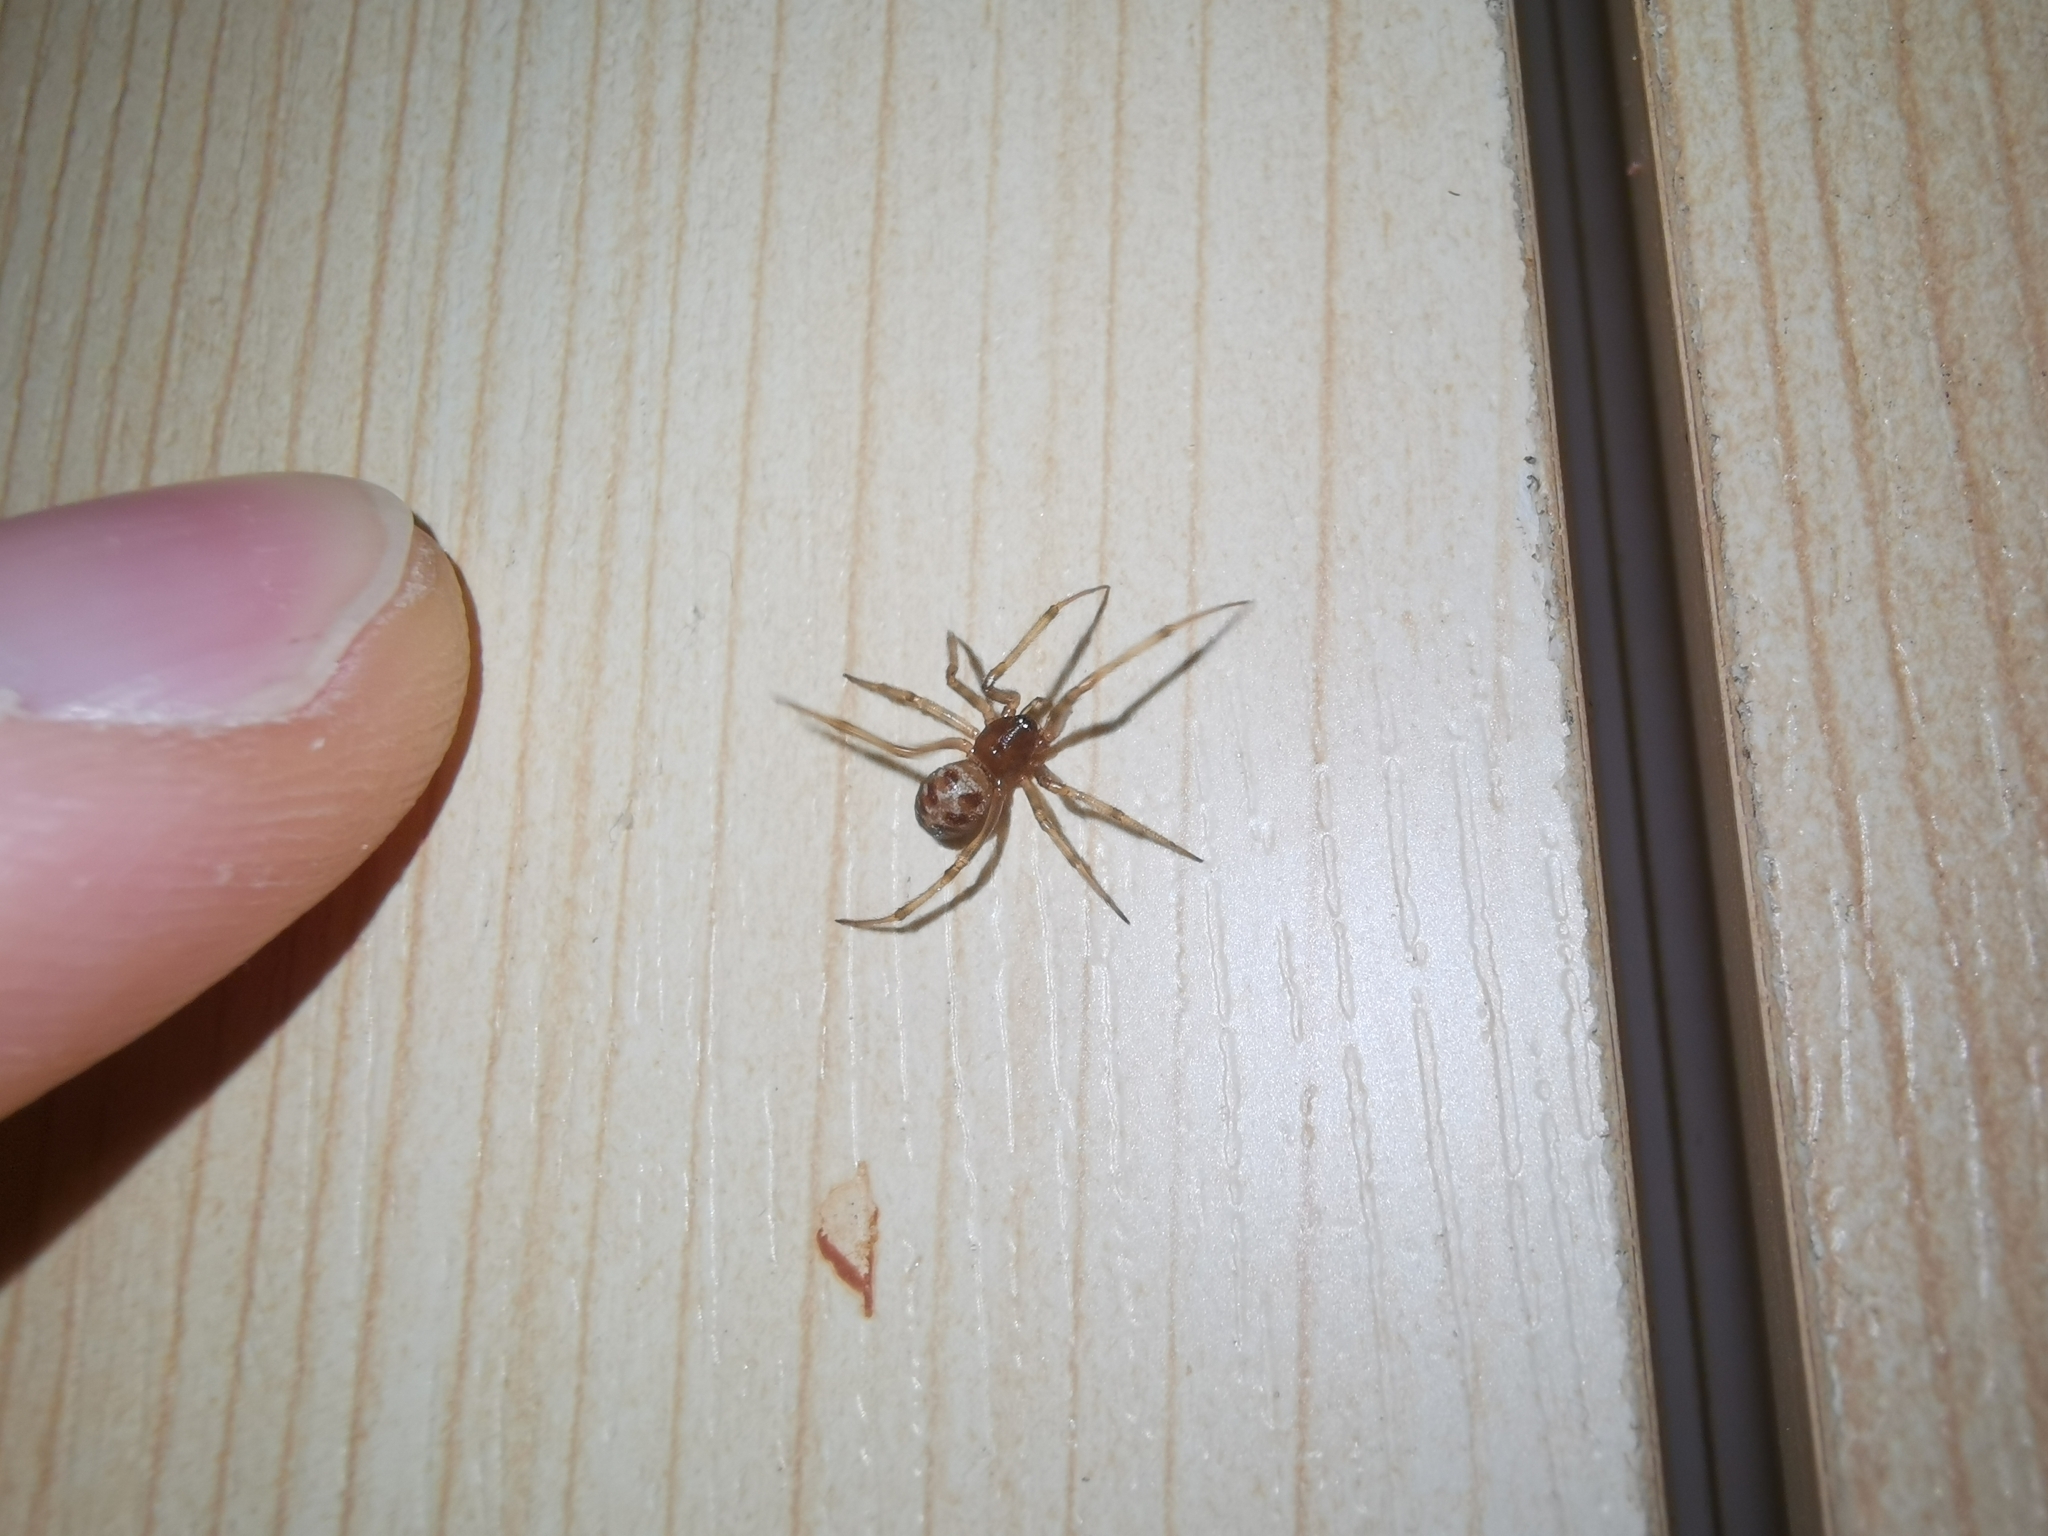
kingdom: Animalia
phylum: Arthropoda
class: Arachnida
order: Araneae
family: Theridiidae
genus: Steatoda
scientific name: Steatoda triangulosa
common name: Triangulate bud spider
